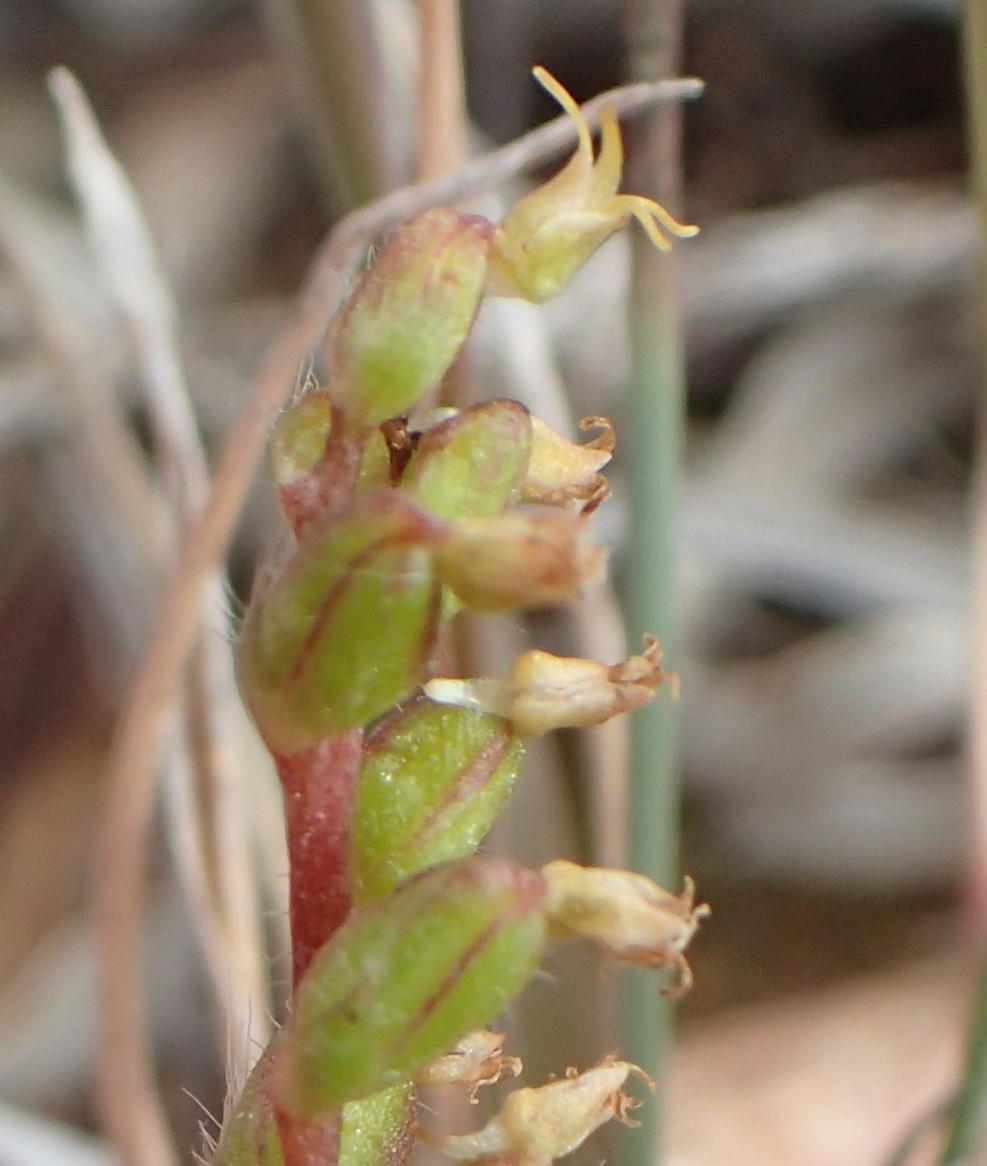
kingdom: Plantae
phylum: Tracheophyta
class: Liliopsida
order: Asparagales
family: Orchidaceae
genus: Holothrix
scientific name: Holothrix villosa
